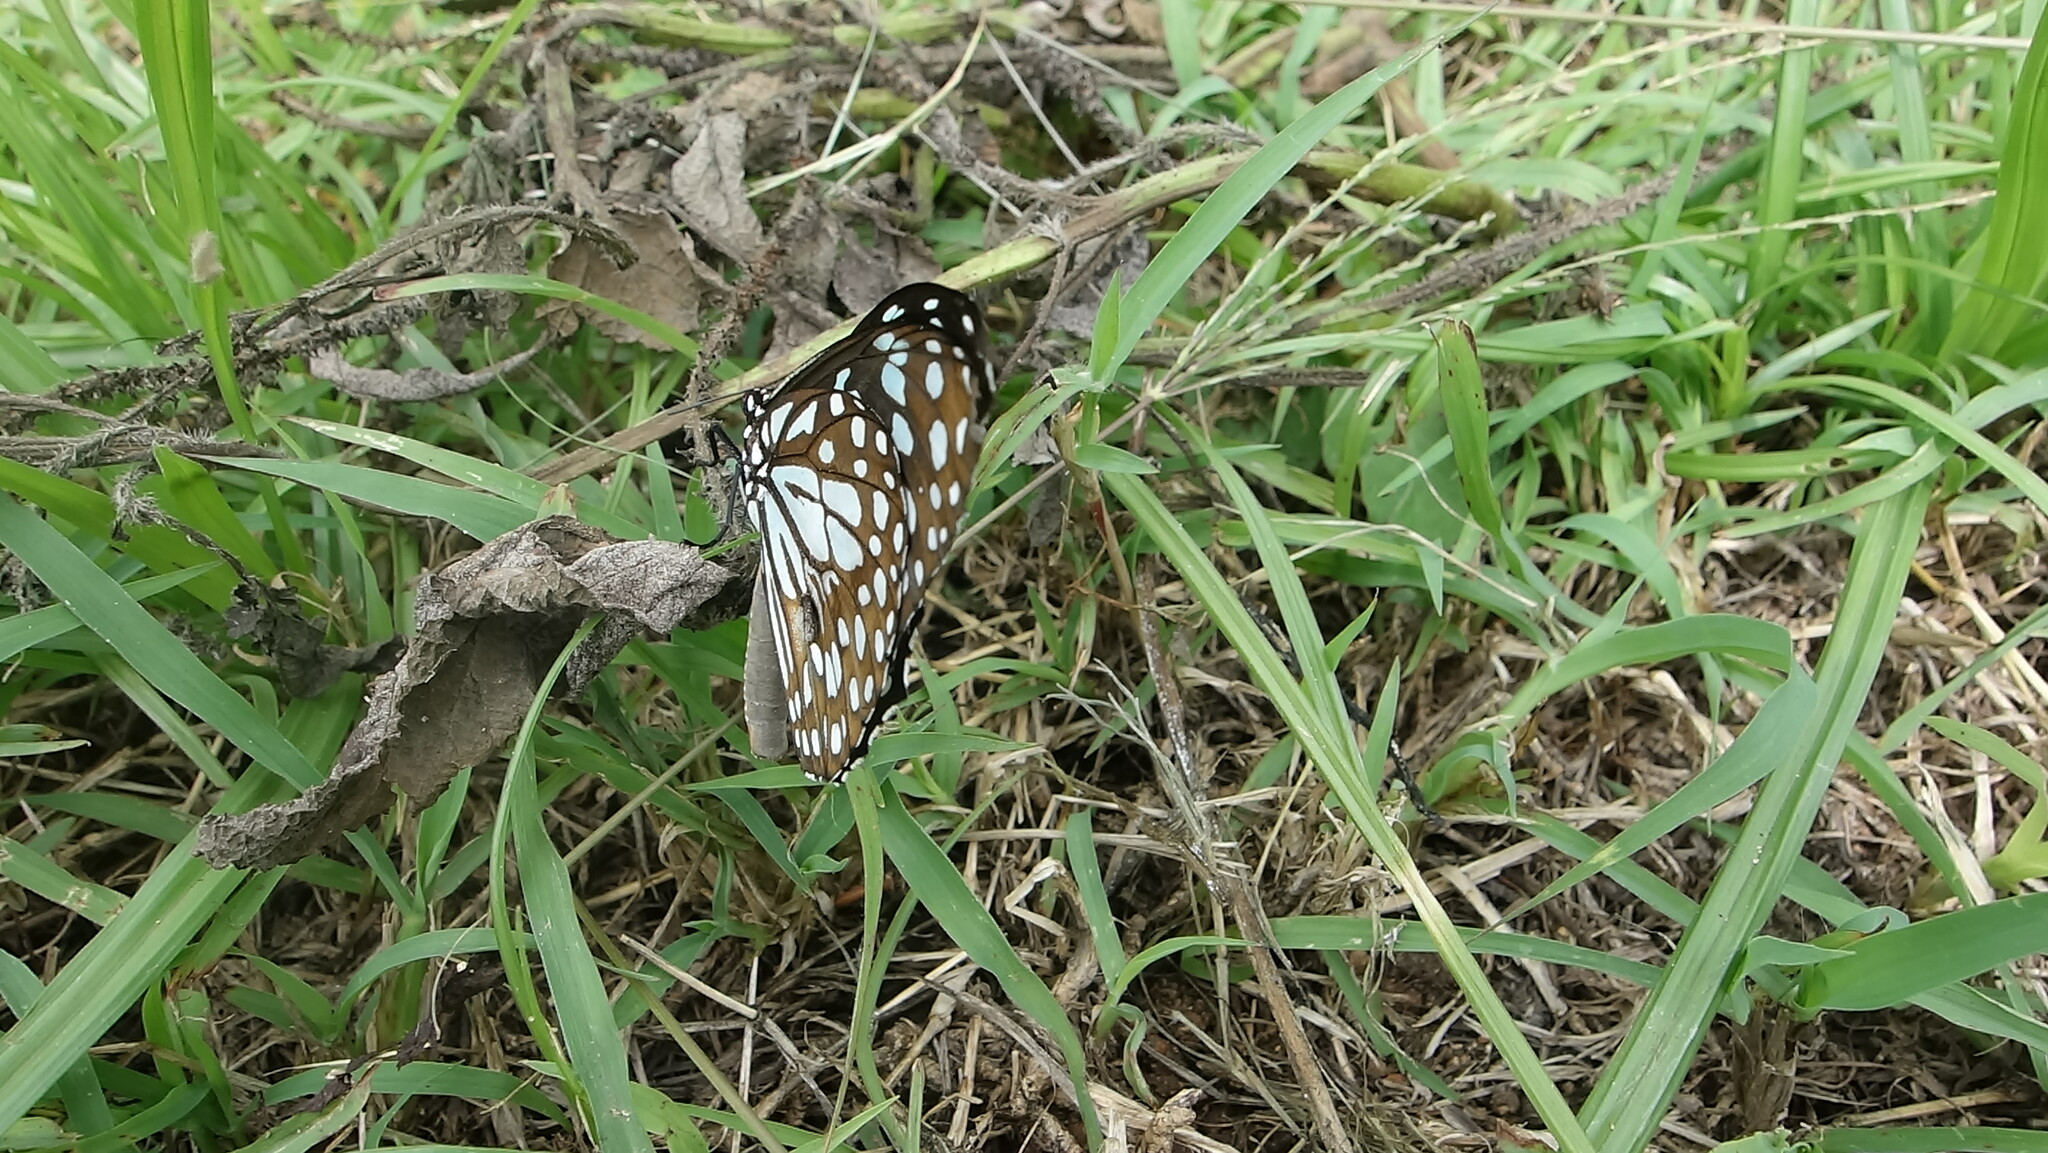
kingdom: Animalia
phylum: Arthropoda
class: Insecta
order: Lepidoptera
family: Nymphalidae
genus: Tirumala
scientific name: Tirumala limniace
